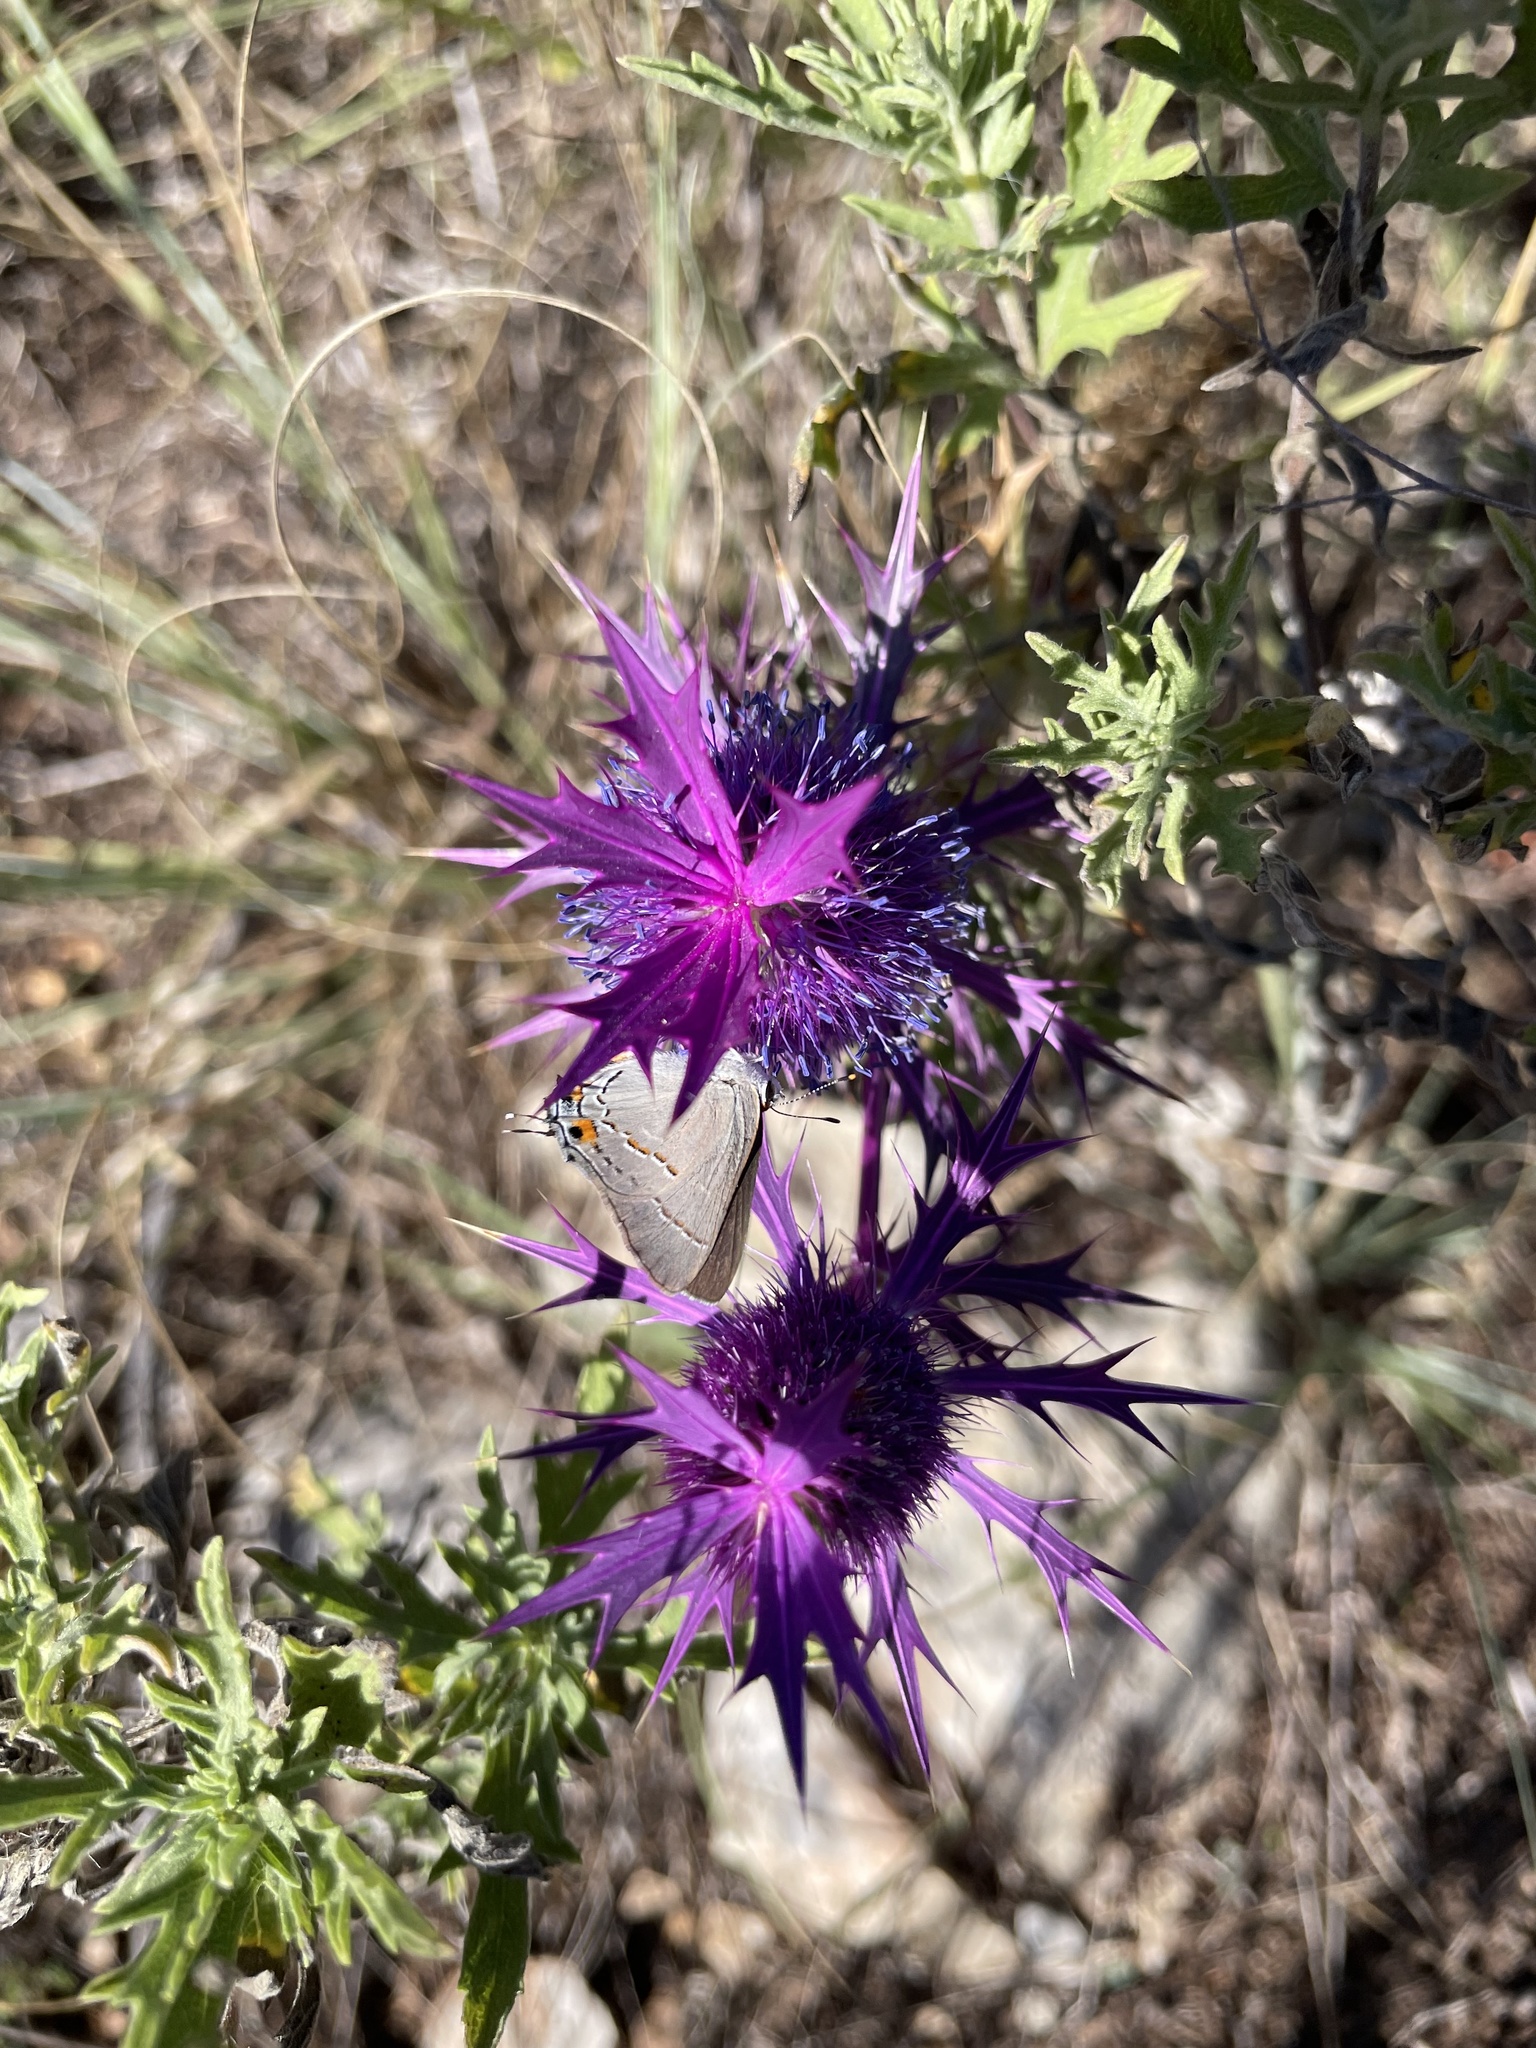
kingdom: Plantae
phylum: Tracheophyta
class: Magnoliopsida
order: Apiales
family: Apiaceae
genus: Eryngium
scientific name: Eryngium leavenworthii
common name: Leavenworth's eryngo
